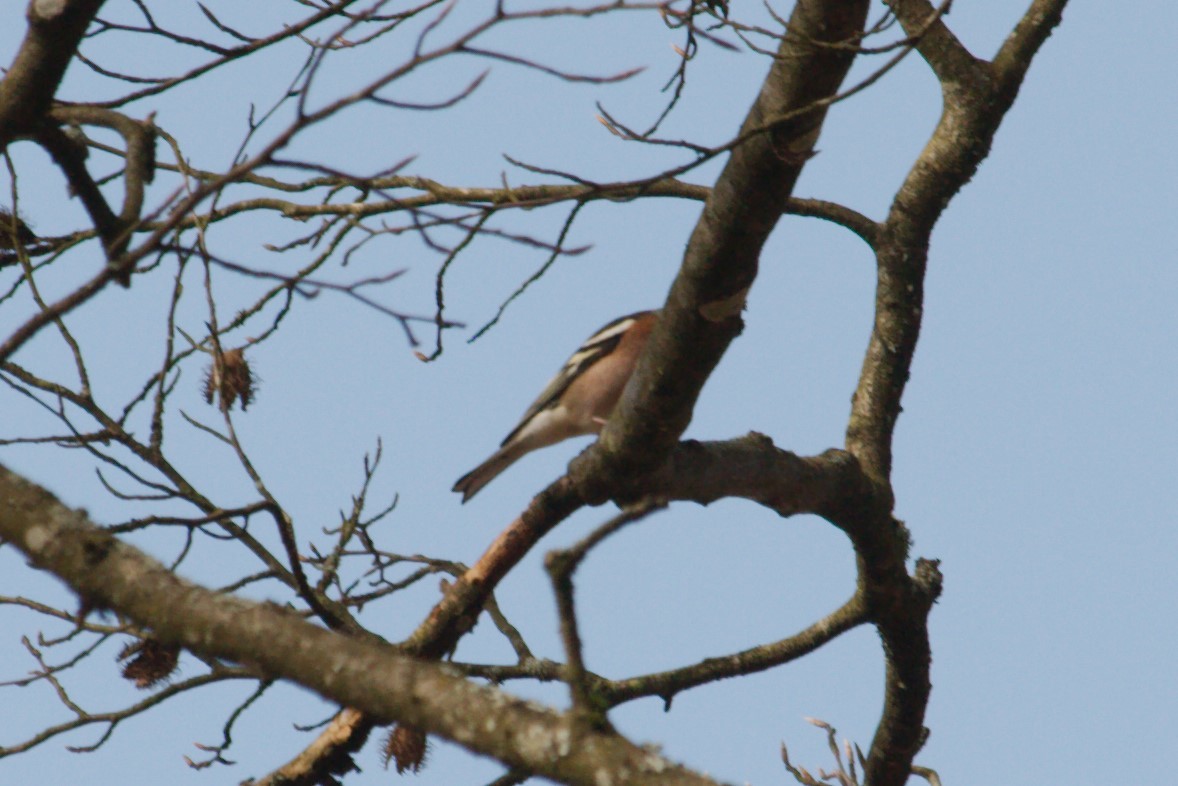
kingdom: Animalia
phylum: Chordata
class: Aves
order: Passeriformes
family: Fringillidae
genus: Fringilla
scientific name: Fringilla coelebs
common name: Common chaffinch
